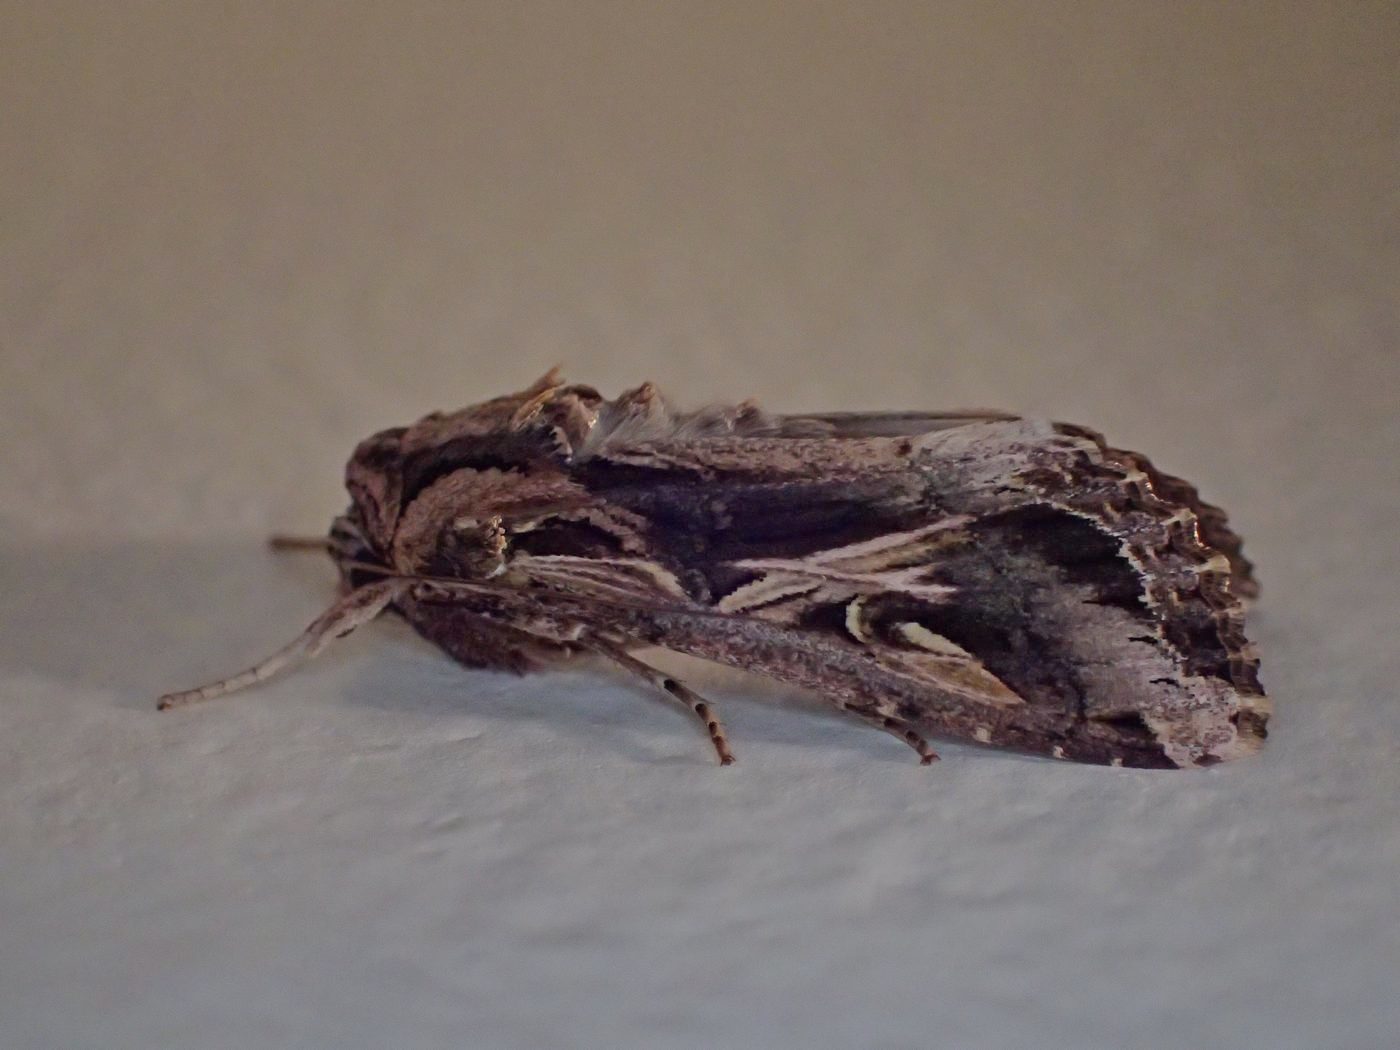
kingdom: Animalia
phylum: Arthropoda
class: Insecta
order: Lepidoptera
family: Noctuidae
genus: Spodoptera
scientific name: Spodoptera dolichos
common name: Sweetpotato armyworm
